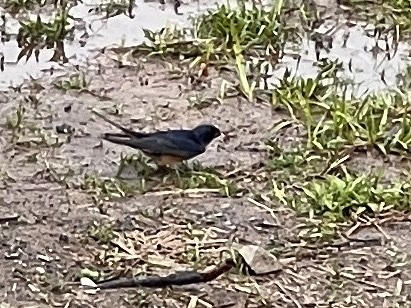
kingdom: Animalia
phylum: Chordata
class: Aves
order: Passeriformes
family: Hirundinidae
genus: Hirundo
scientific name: Hirundo rustica
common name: Barn swallow
